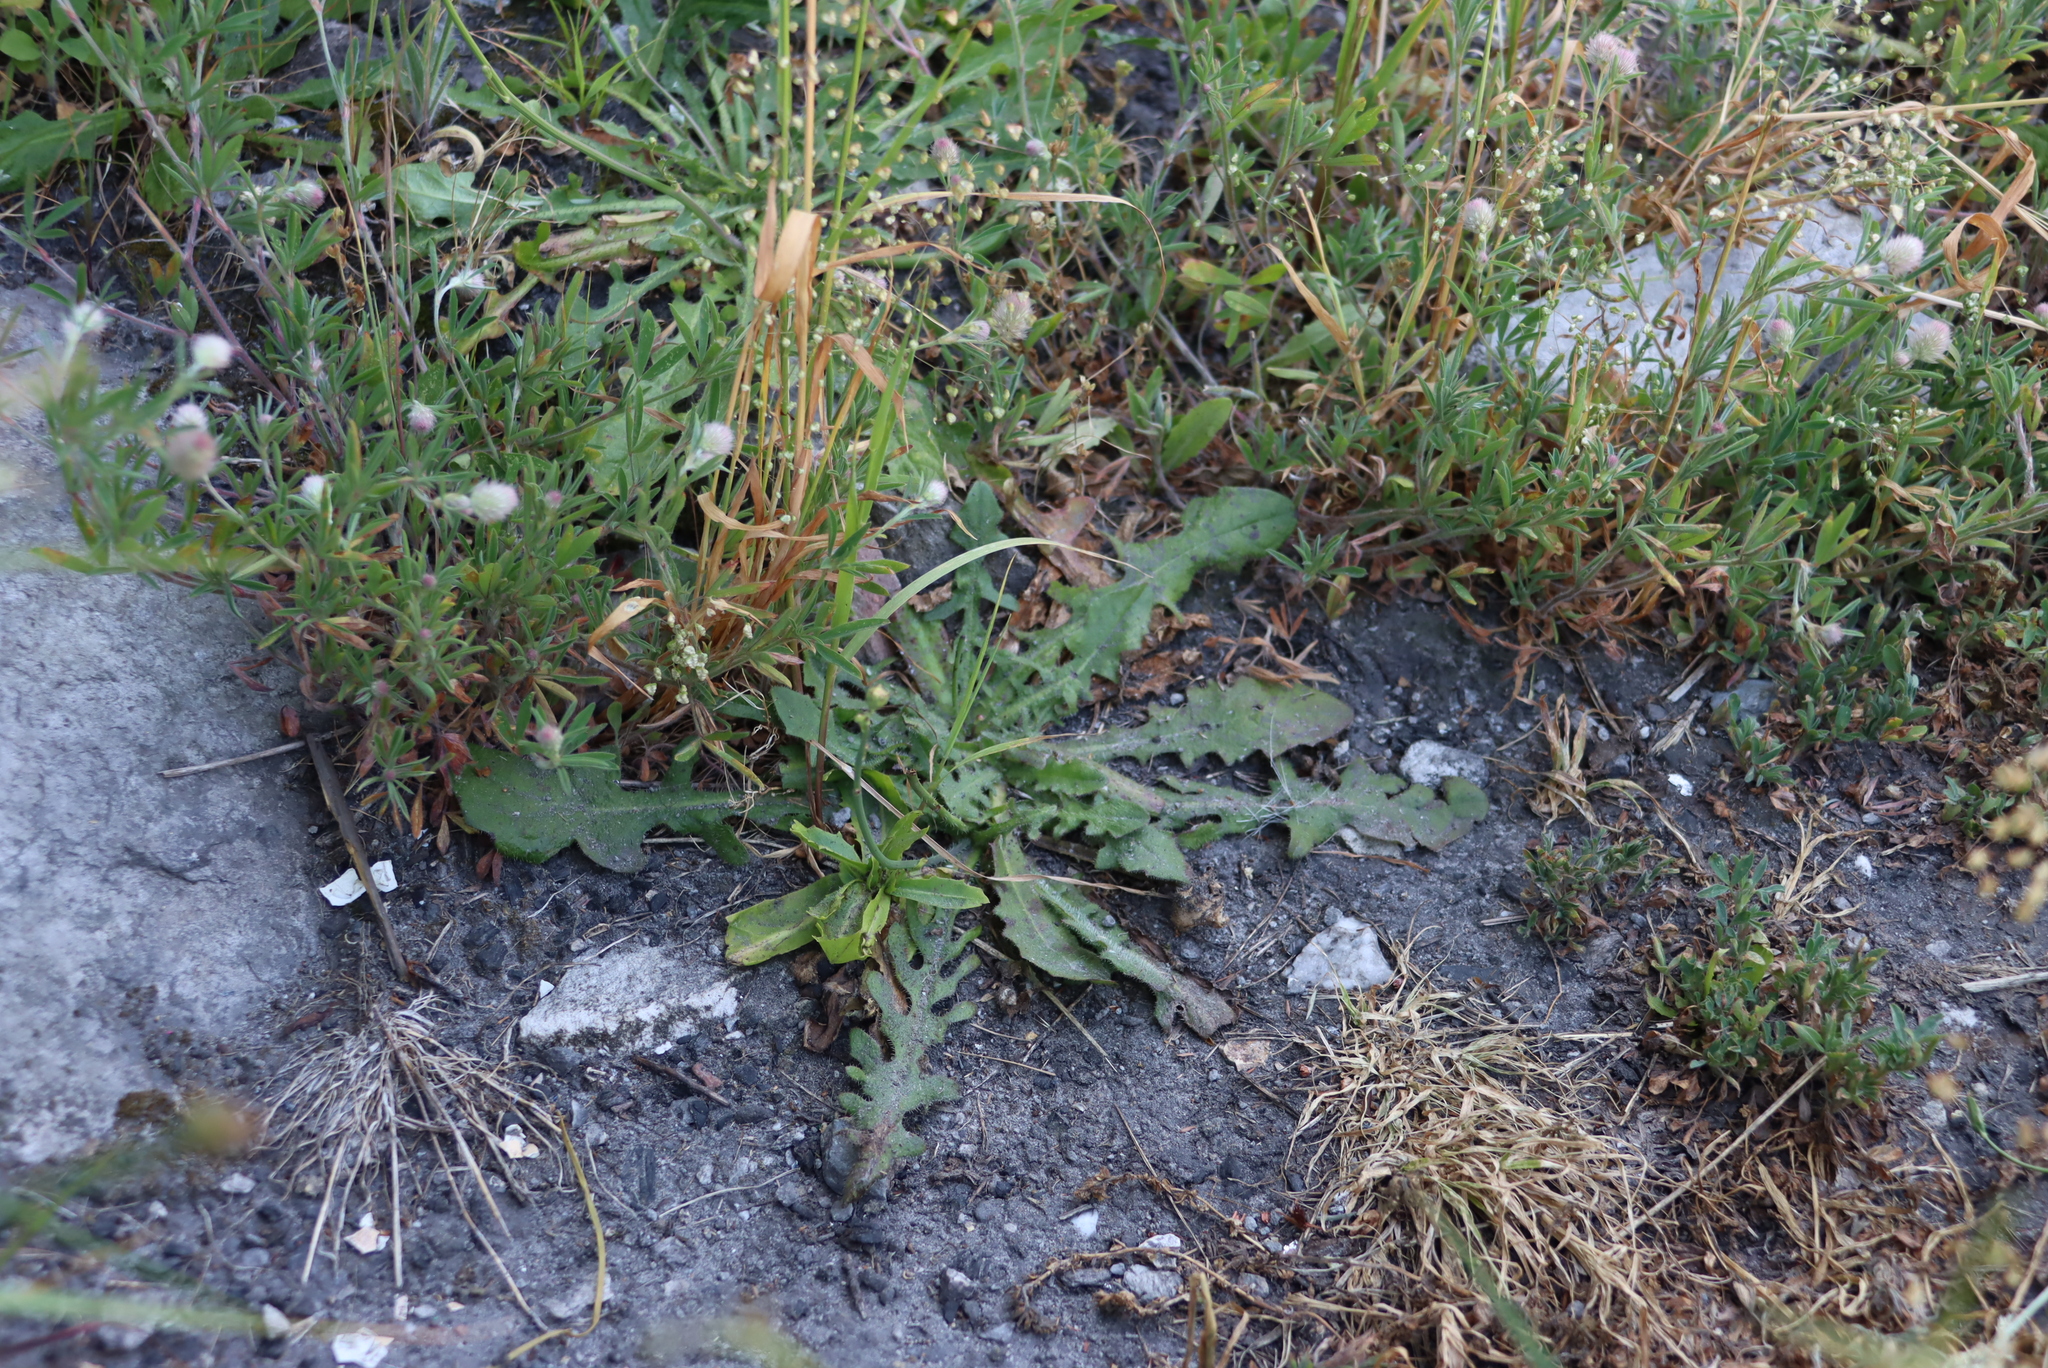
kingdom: Plantae
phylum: Tracheophyta
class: Magnoliopsida
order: Asterales
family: Asteraceae
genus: Hypochaeris
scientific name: Hypochaeris radicata
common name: Flatweed
